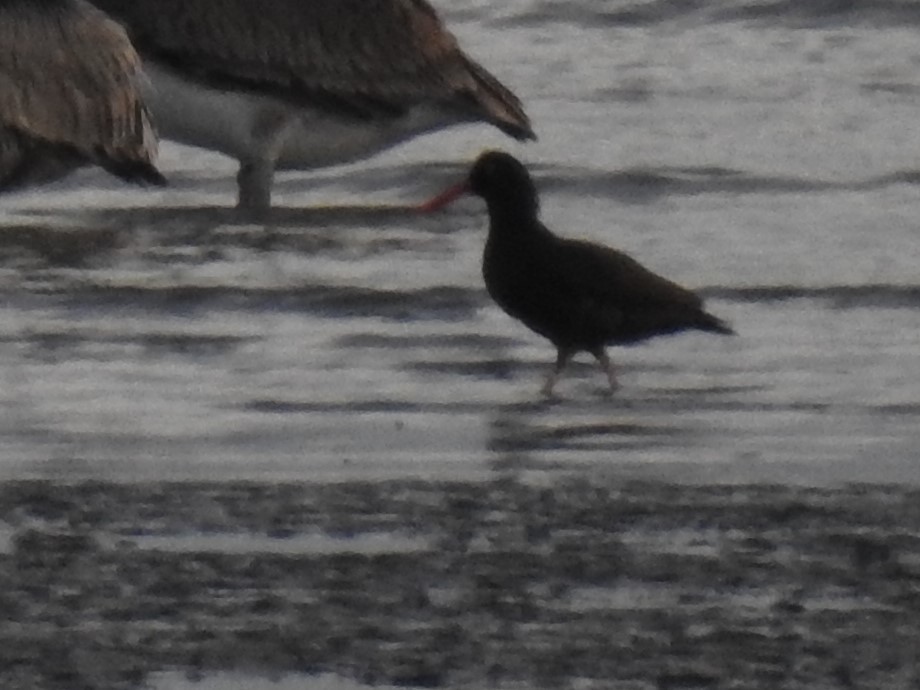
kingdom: Animalia
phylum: Chordata
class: Aves
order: Charadriiformes
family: Haematopodidae
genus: Haematopus
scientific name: Haematopus bachmani
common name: Black oystercatcher
